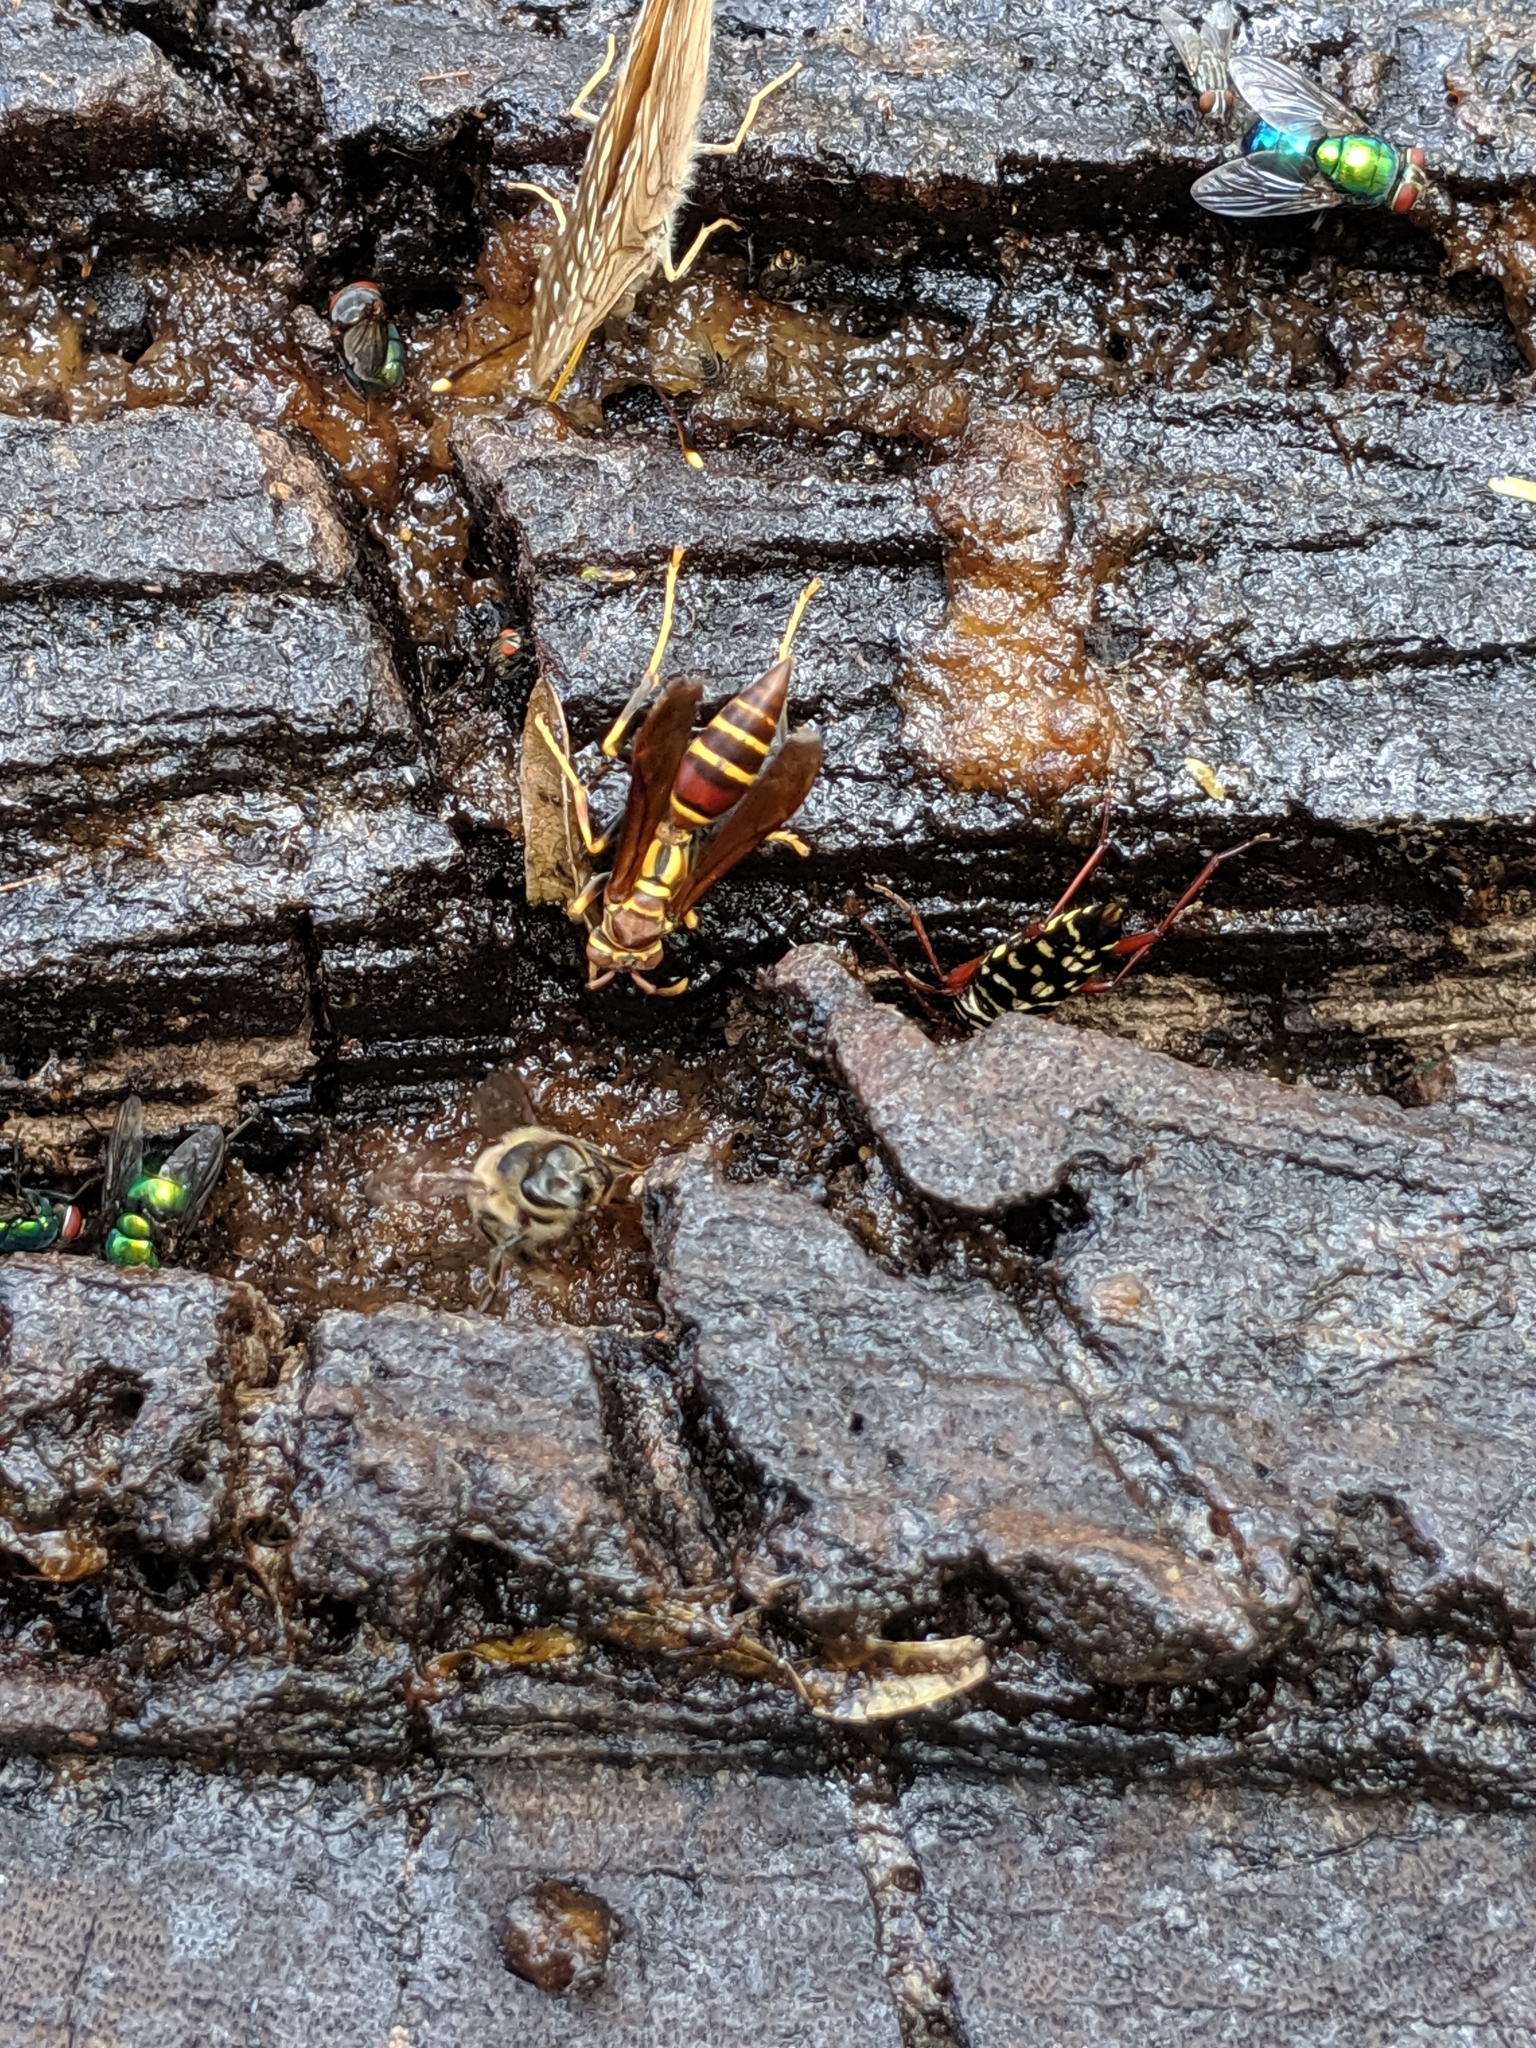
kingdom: Animalia
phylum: Arthropoda
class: Insecta
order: Hymenoptera
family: Eumenidae
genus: Polistes
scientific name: Polistes instabilis
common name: Unstable paper wasp
